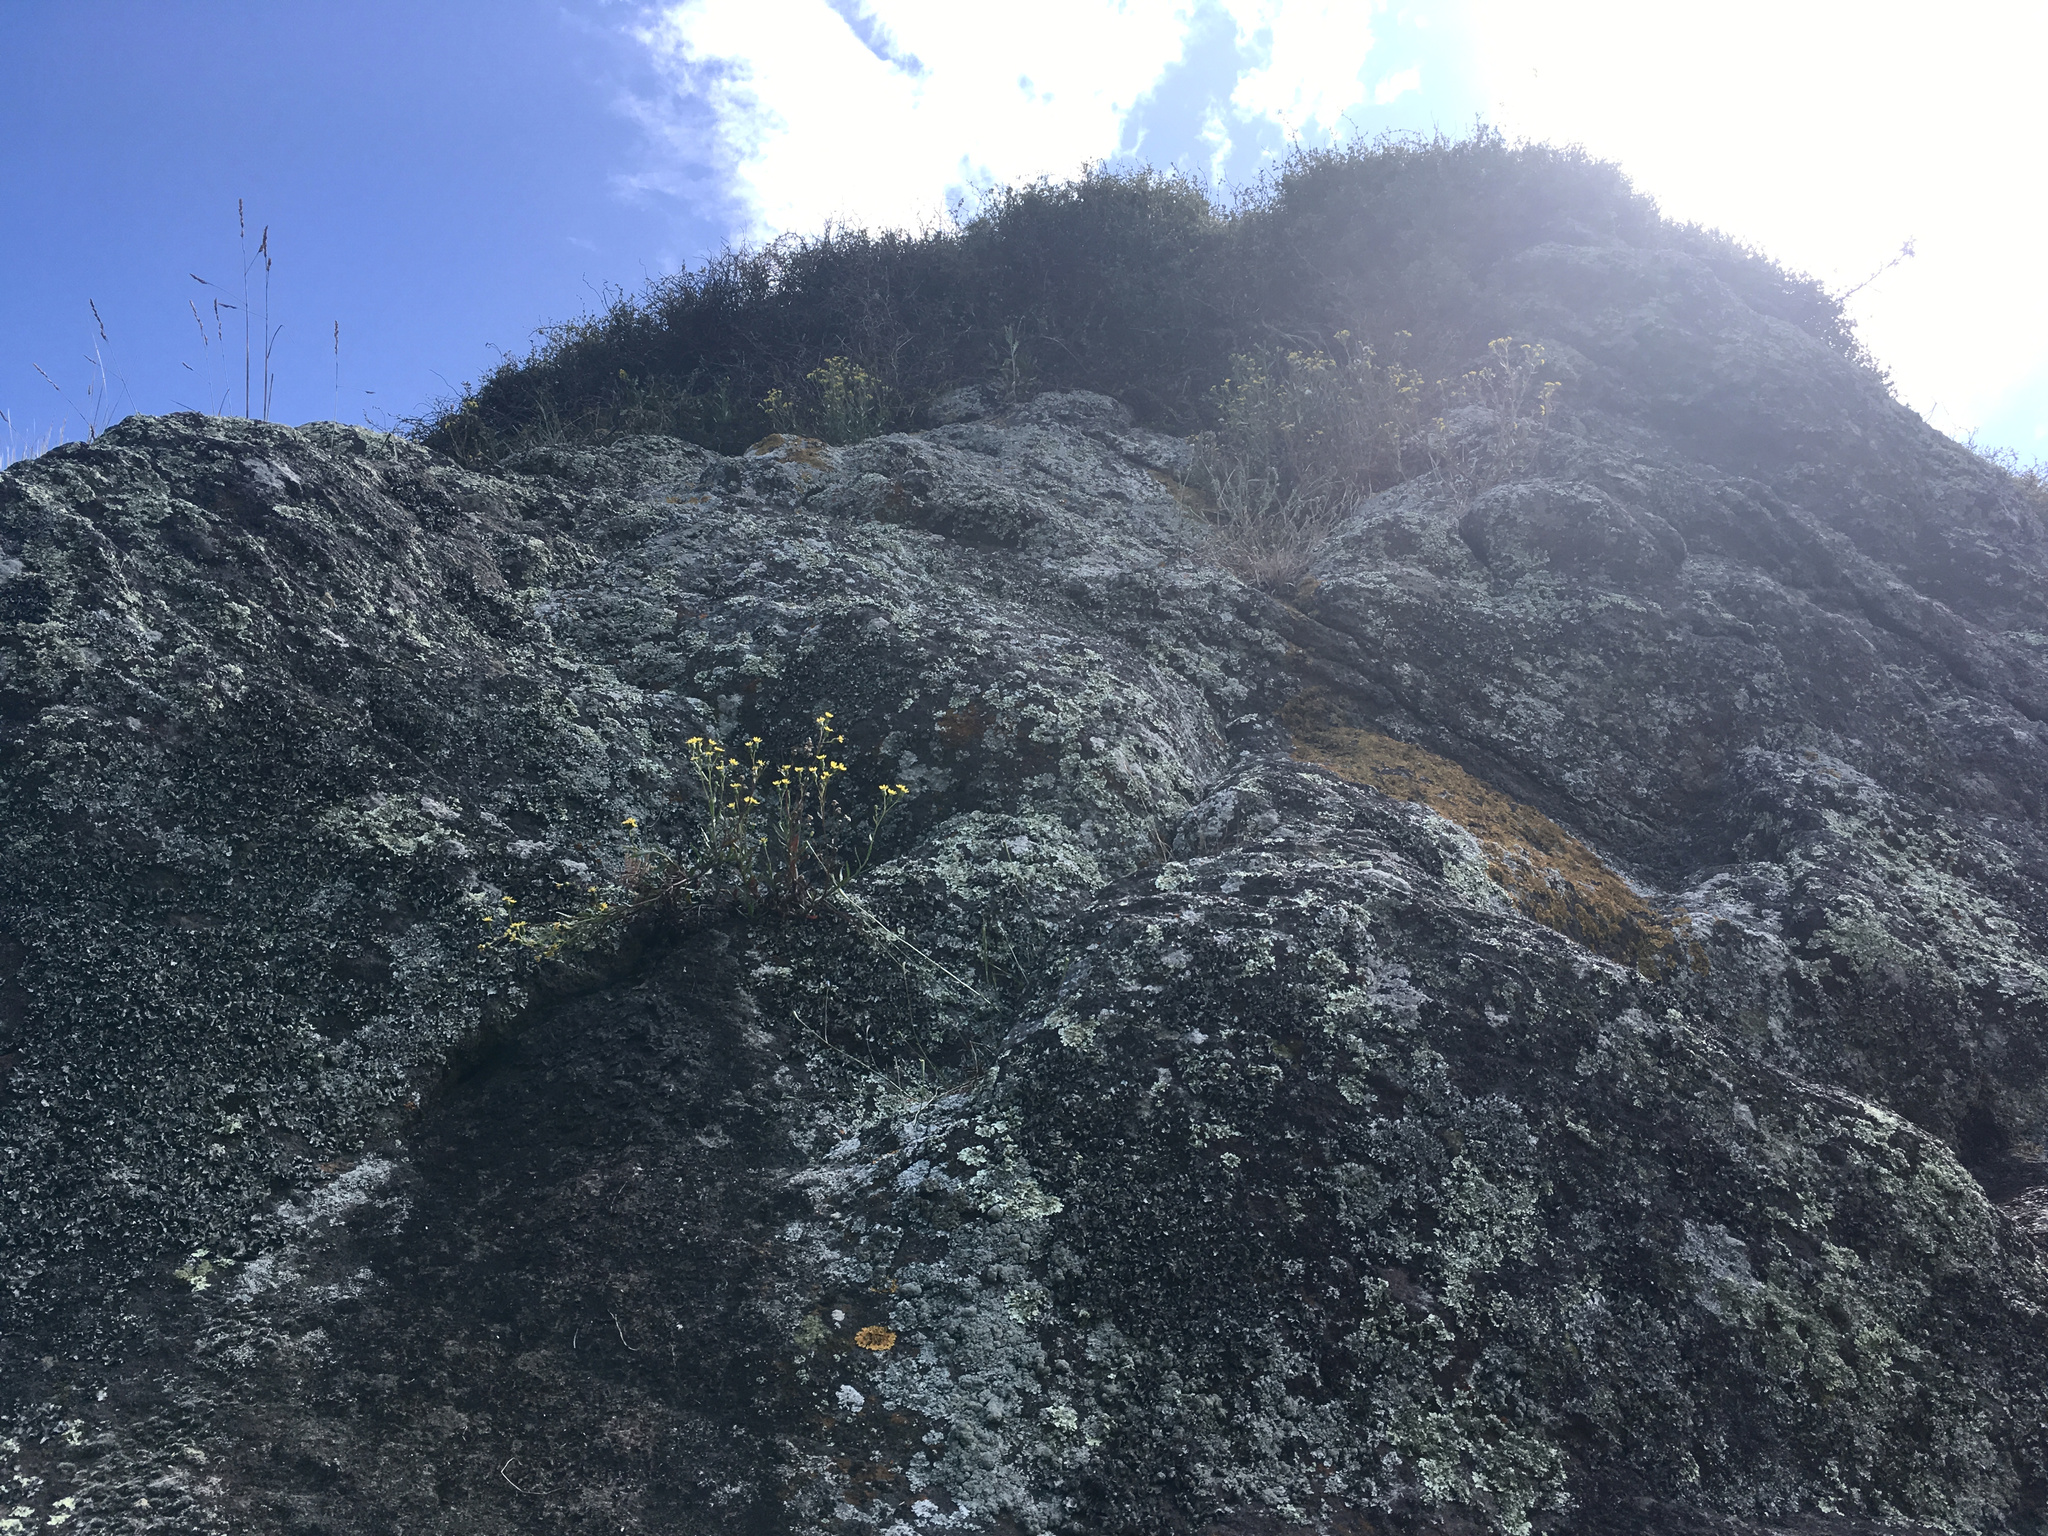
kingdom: Plantae
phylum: Tracheophyta
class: Magnoliopsida
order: Asterales
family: Asteraceae
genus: Senecio
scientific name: Senecio matatini
